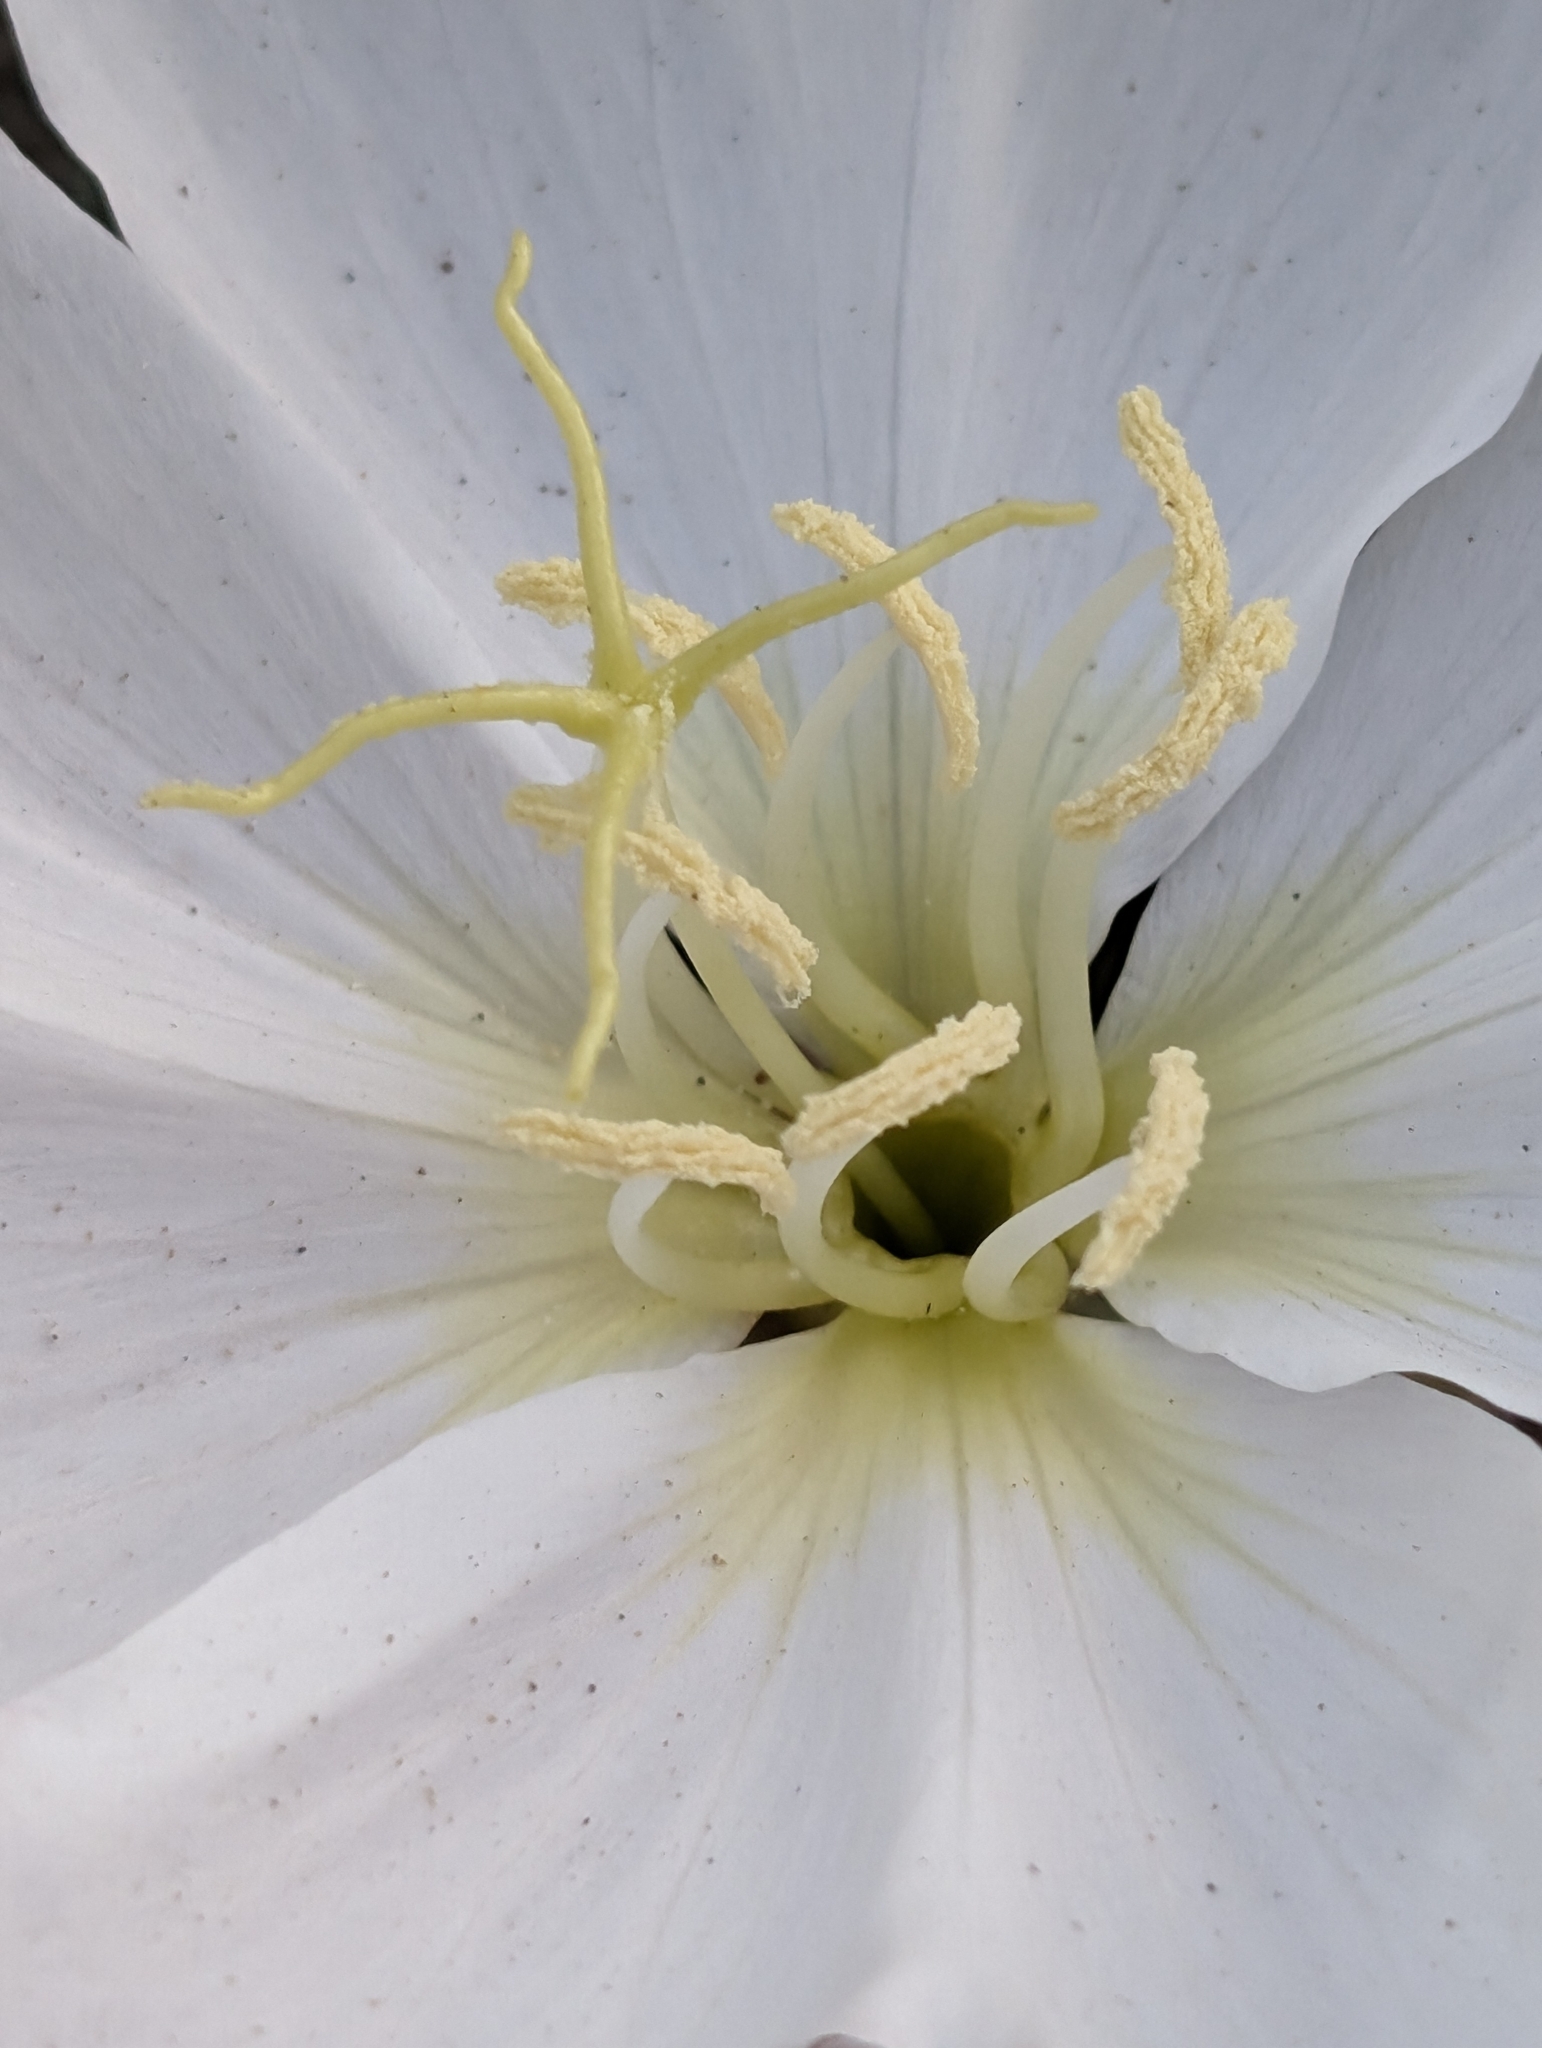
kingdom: Plantae
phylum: Tracheophyta
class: Magnoliopsida
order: Myrtales
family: Onagraceae
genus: Oenothera
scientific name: Oenothera deltoides
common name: Basket evening-primrose
